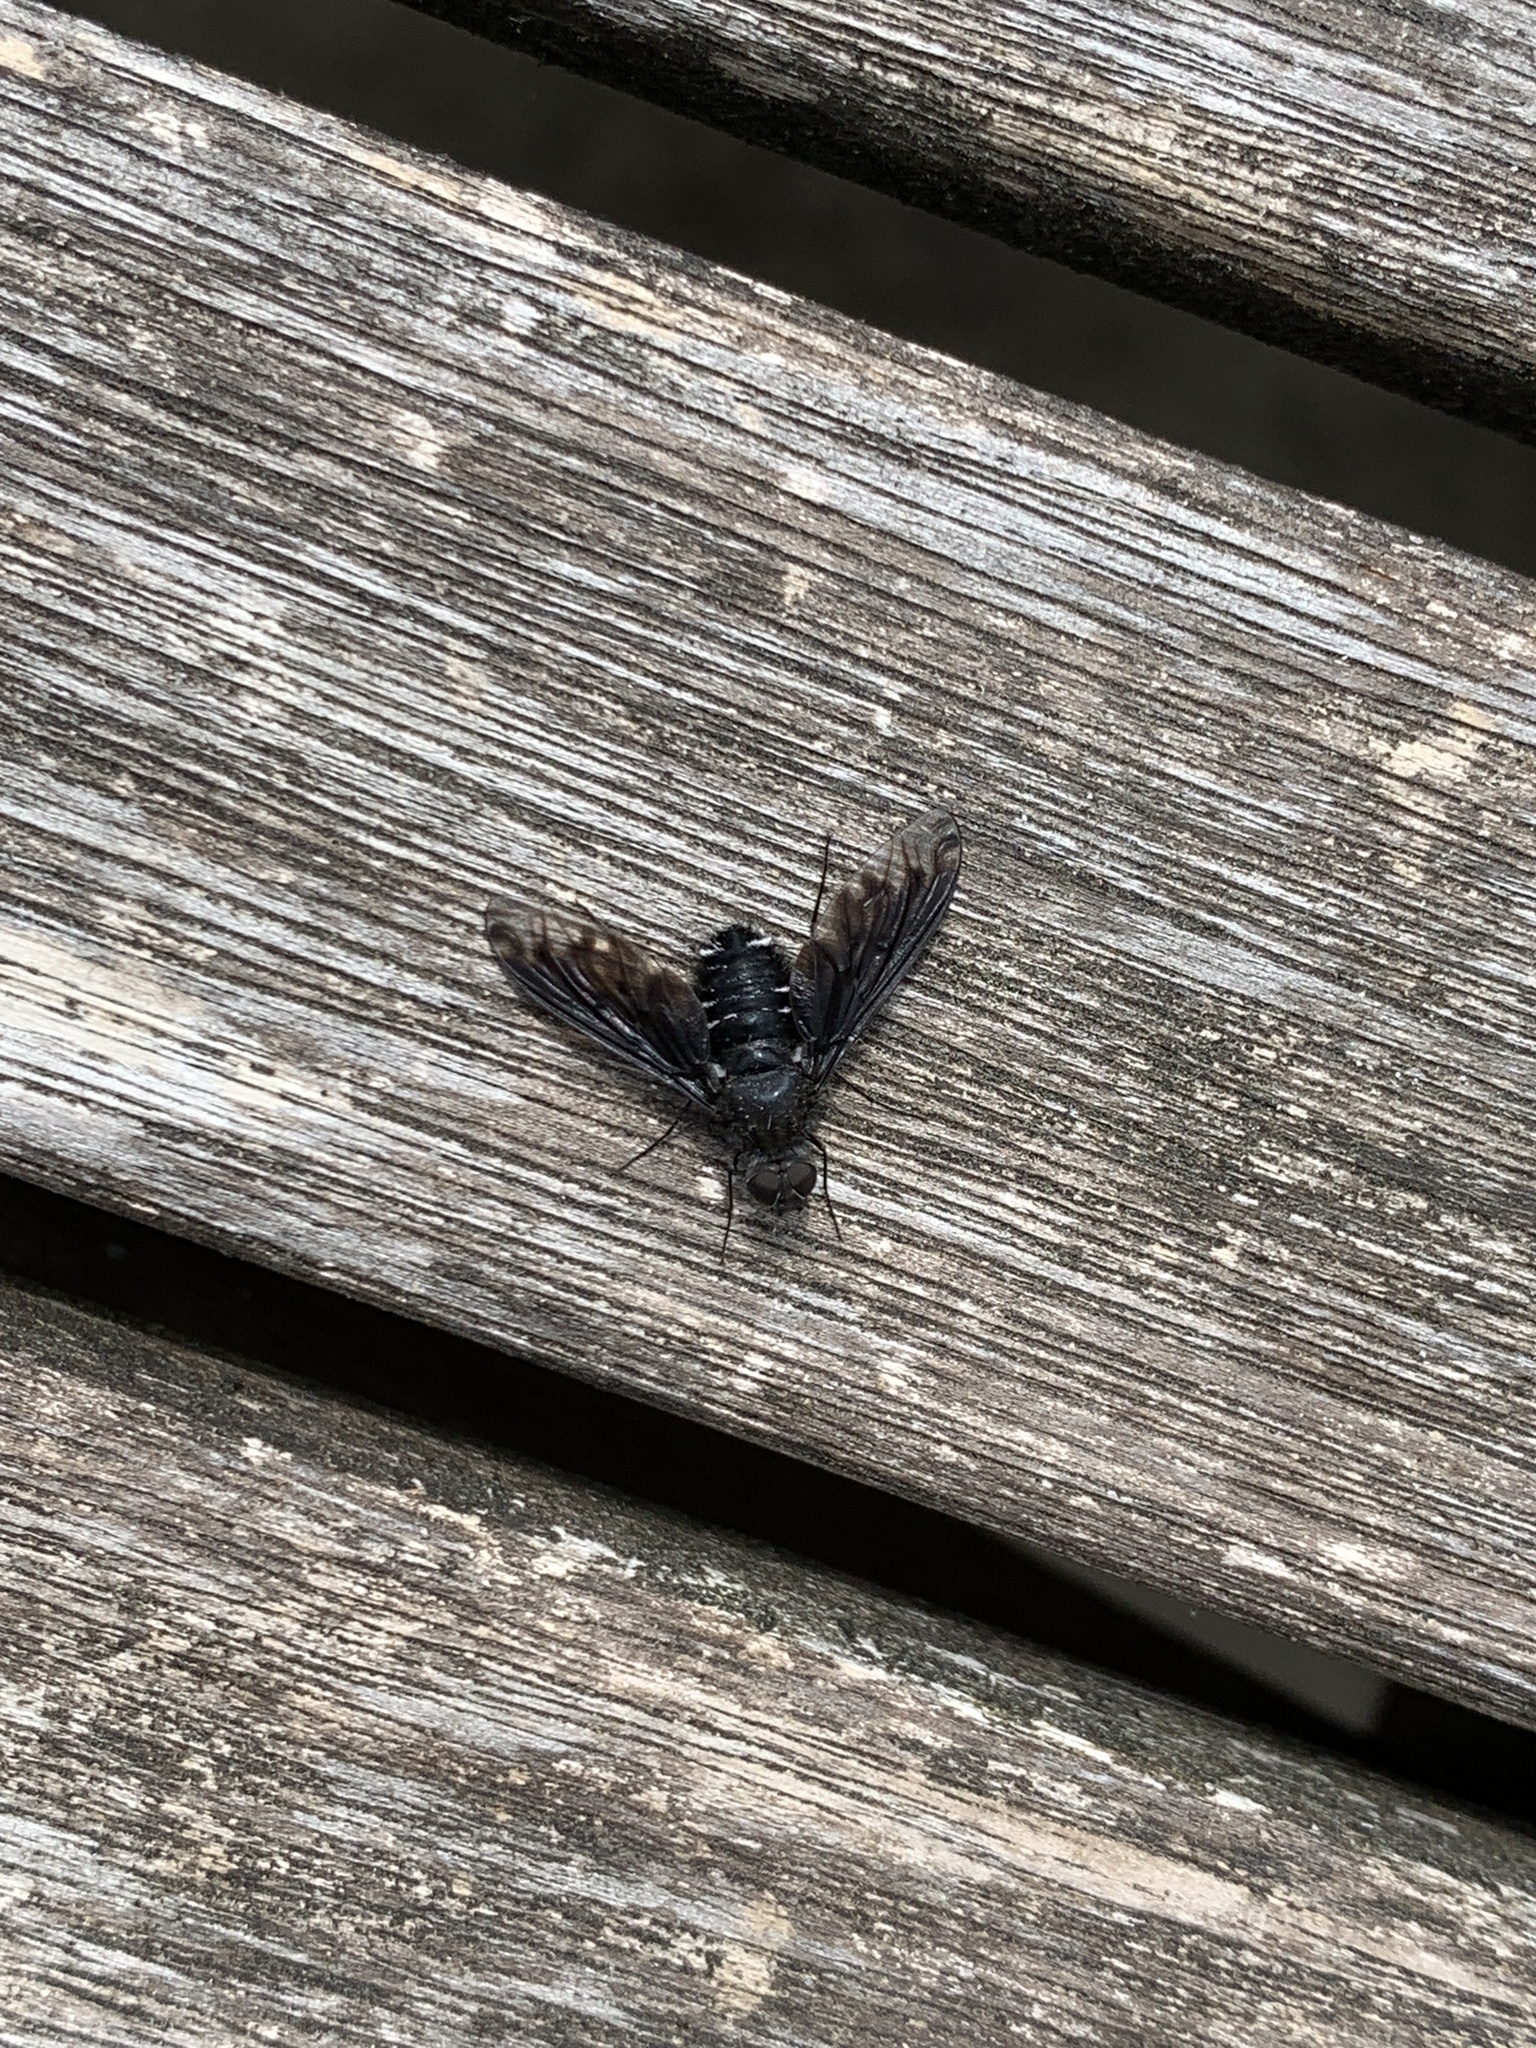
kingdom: Animalia
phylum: Arthropoda
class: Insecta
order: Diptera
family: Bombyliidae
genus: Anthrax
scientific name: Anthrax anthrax
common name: Anthracite bee-fly
